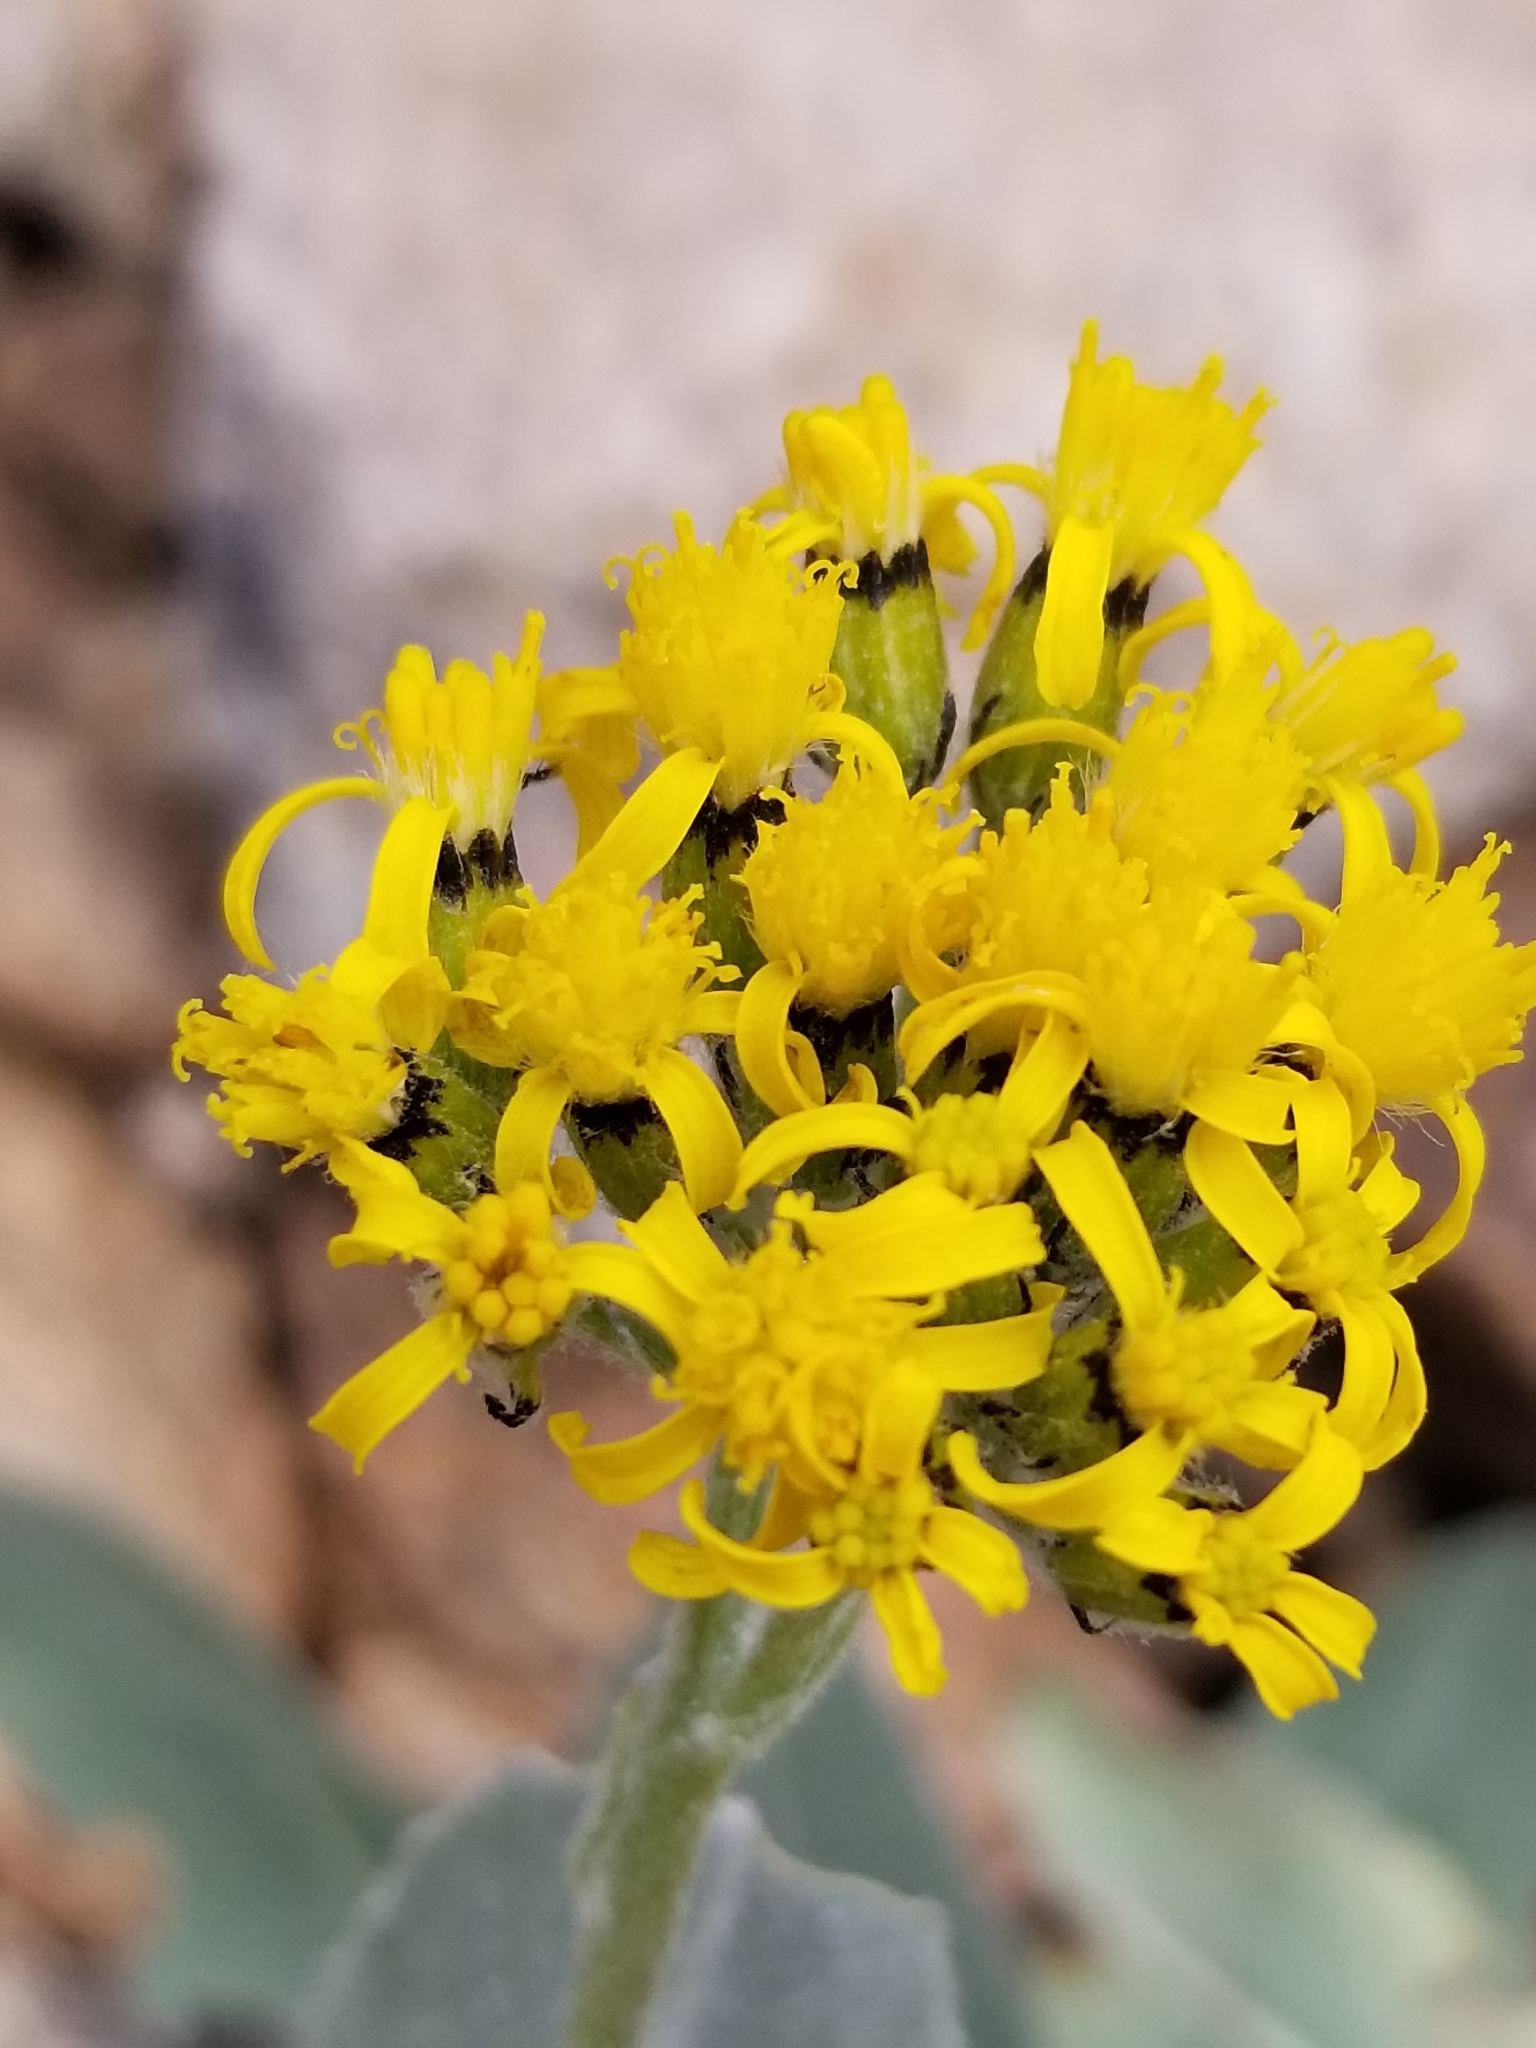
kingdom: Plantae
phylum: Tracheophyta
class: Magnoliopsida
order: Asterales
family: Asteraceae
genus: Senecio
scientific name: Senecio atratus
